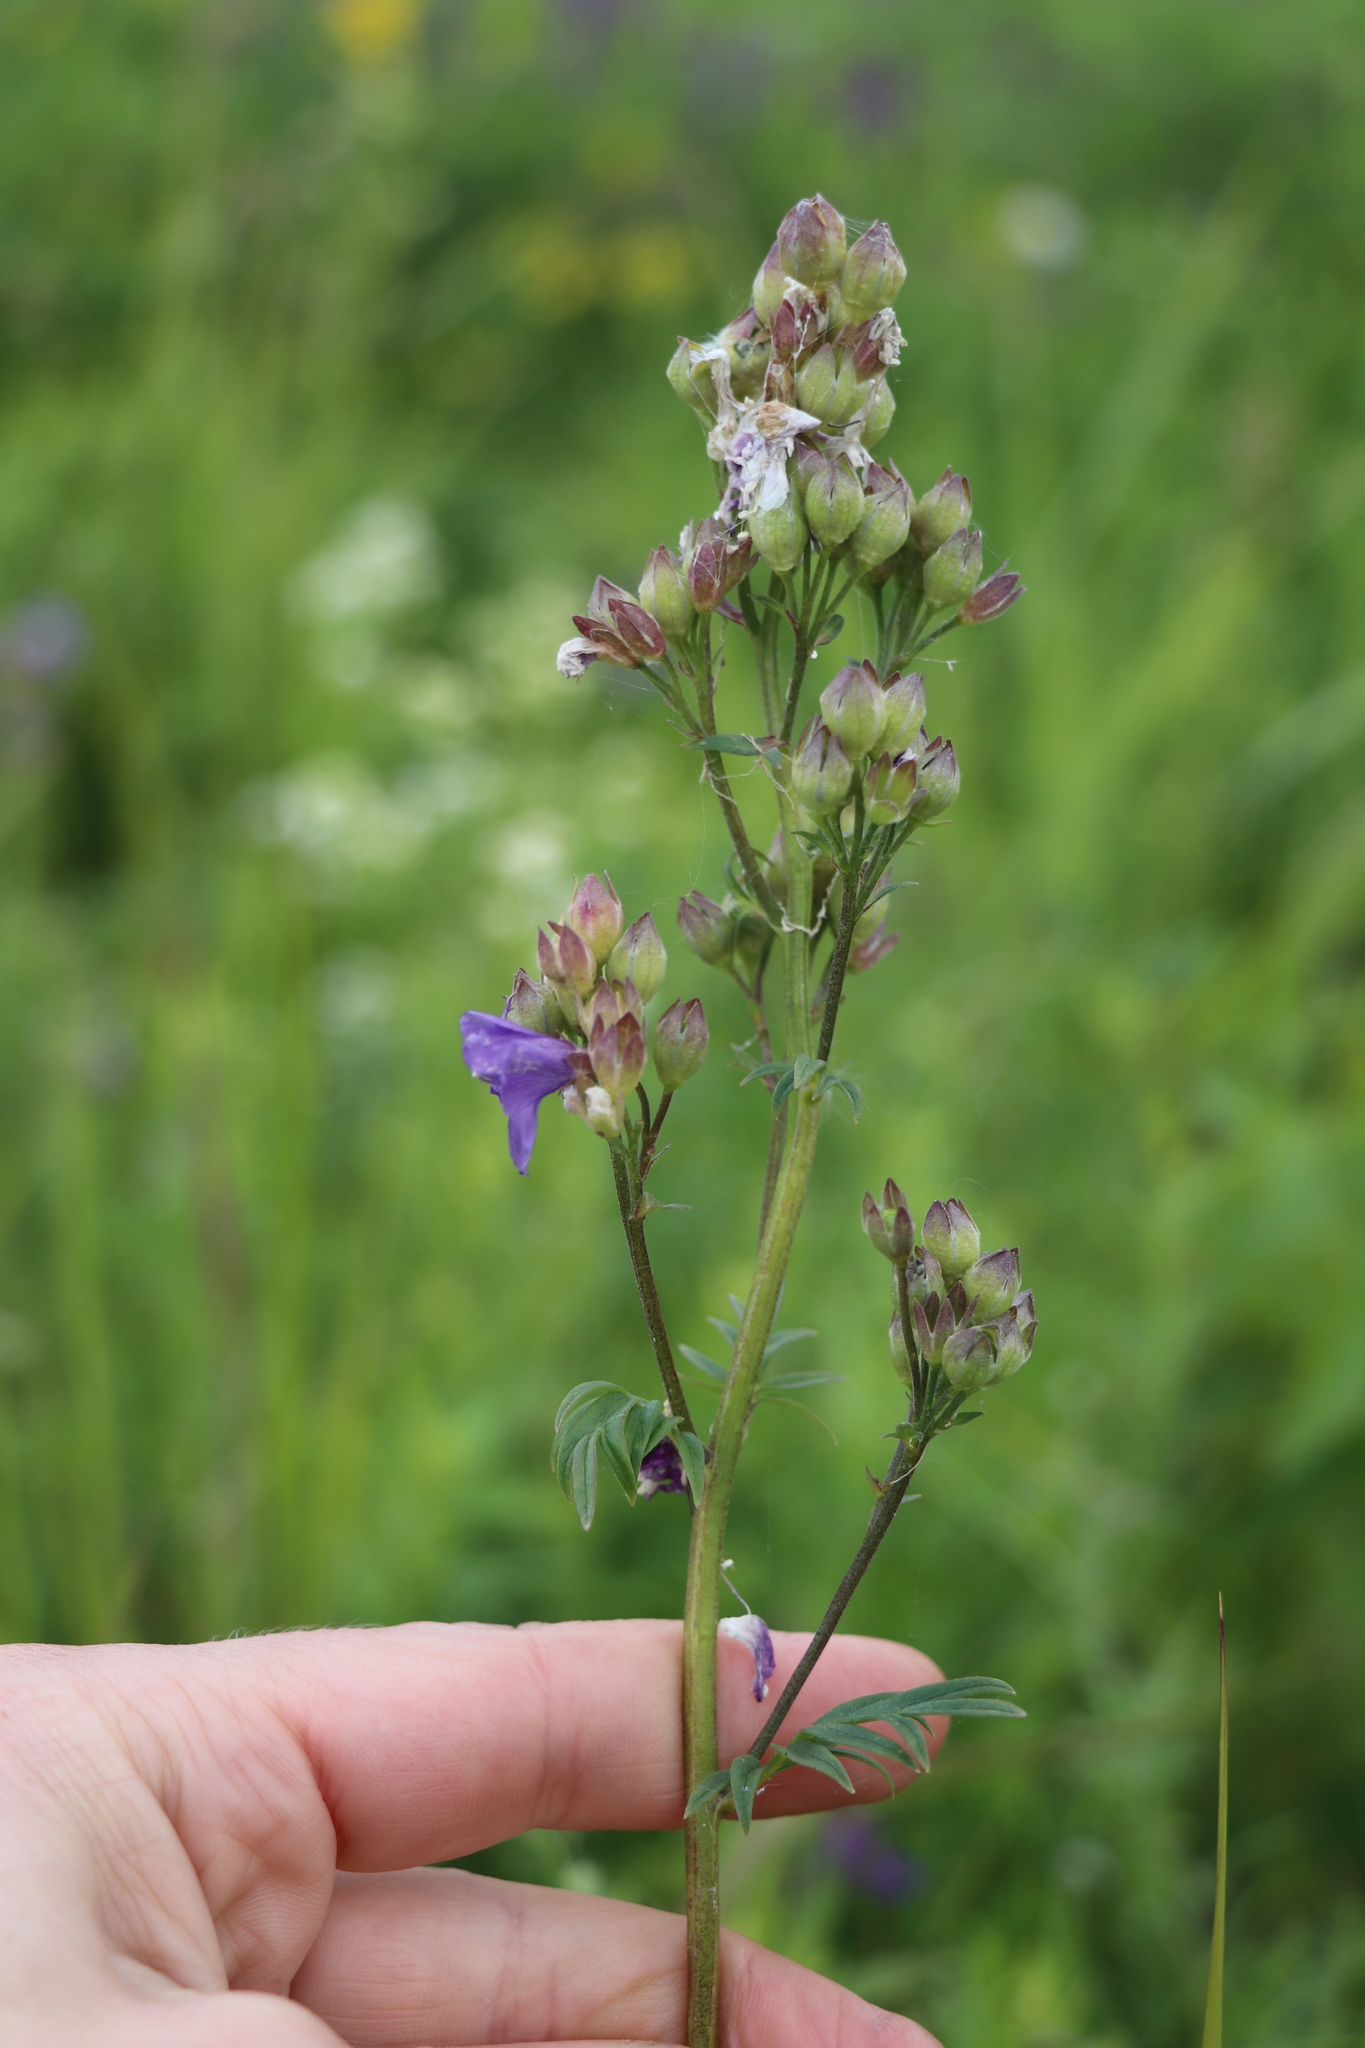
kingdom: Plantae
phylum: Tracheophyta
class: Magnoliopsida
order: Ericales
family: Polemoniaceae
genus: Polemonium
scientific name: Polemonium caeruleum
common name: Jacob's-ladder
